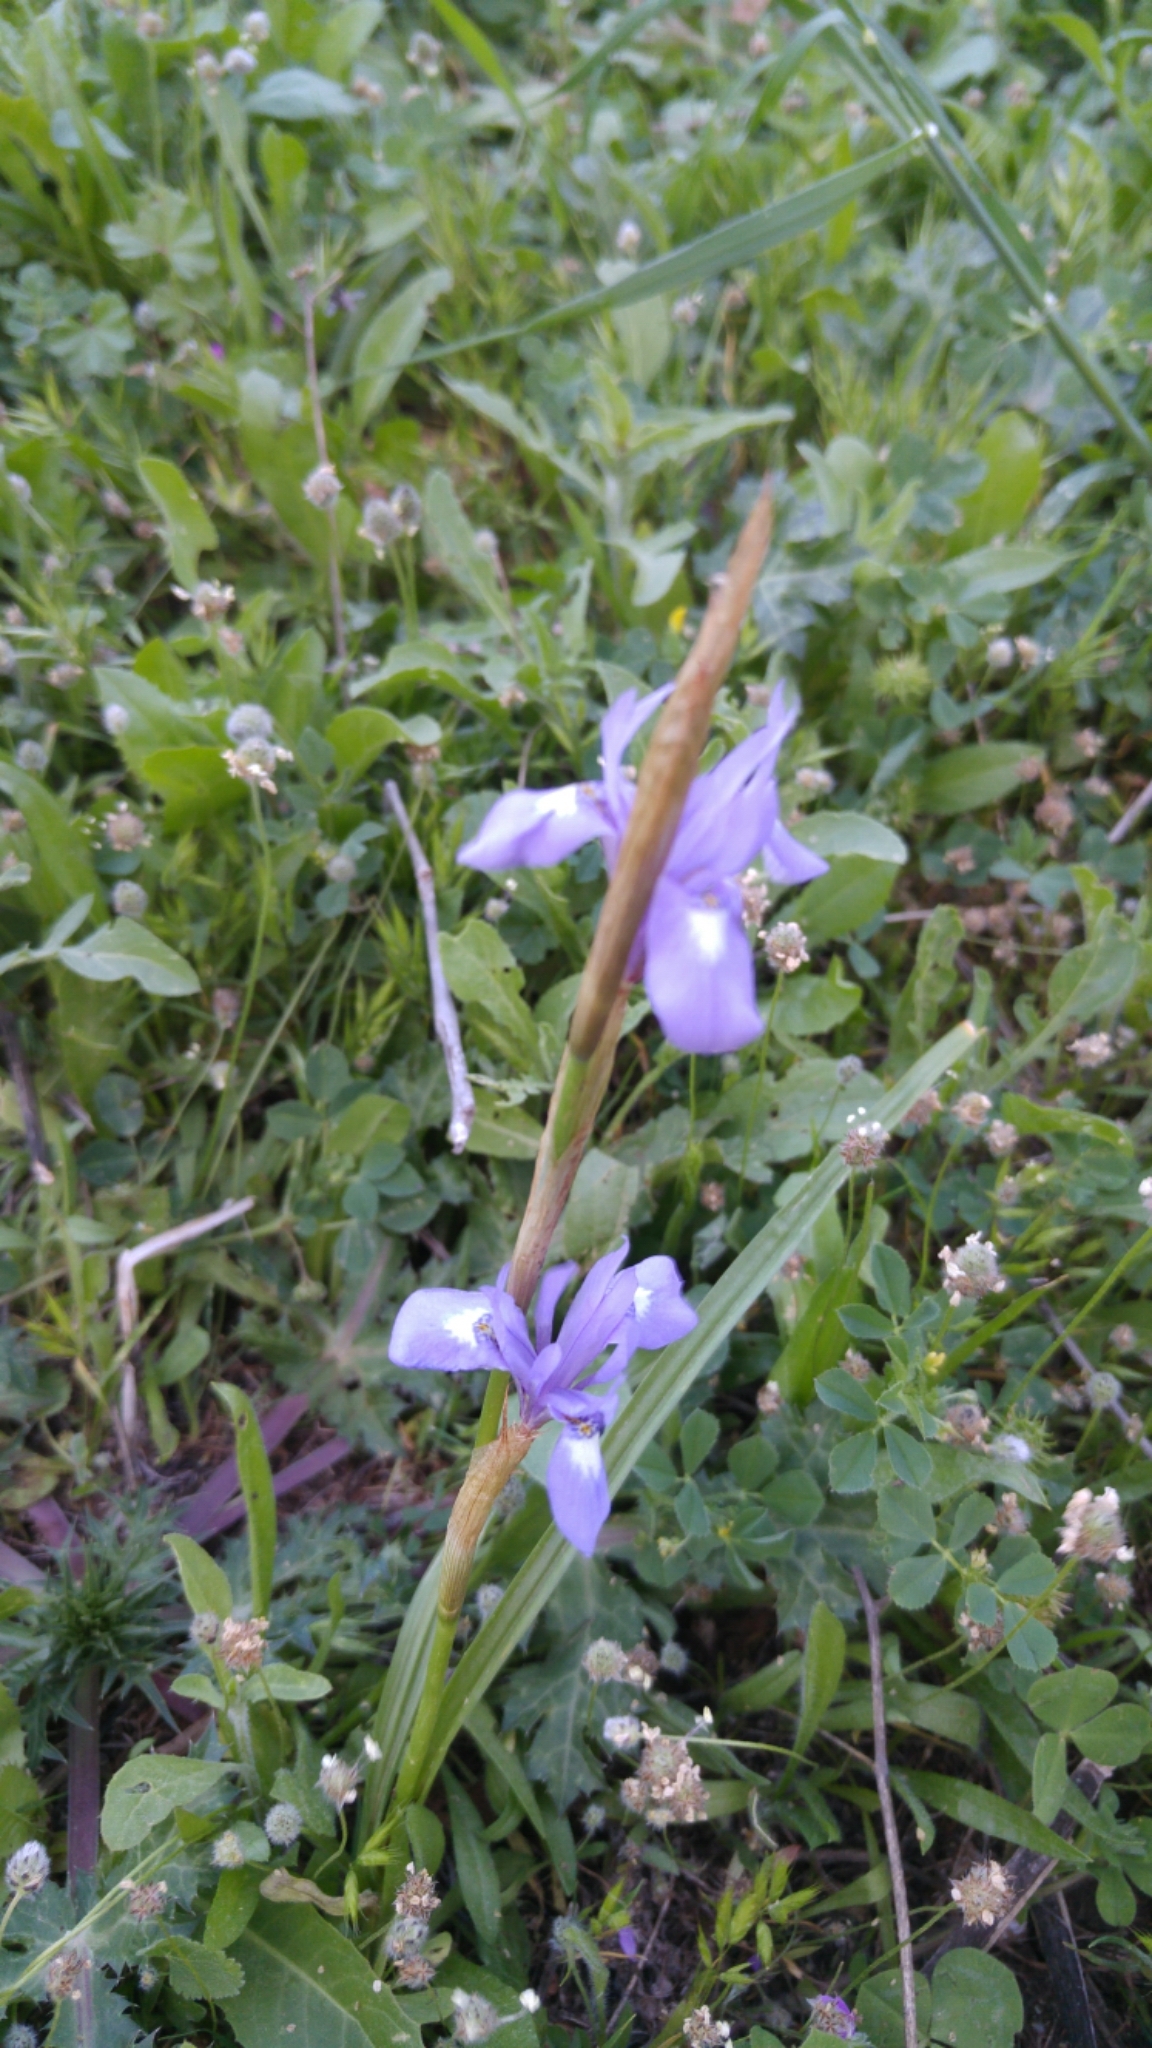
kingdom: Plantae
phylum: Tracheophyta
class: Liliopsida
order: Asparagales
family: Iridaceae
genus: Moraea
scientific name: Moraea sisyrinchium
